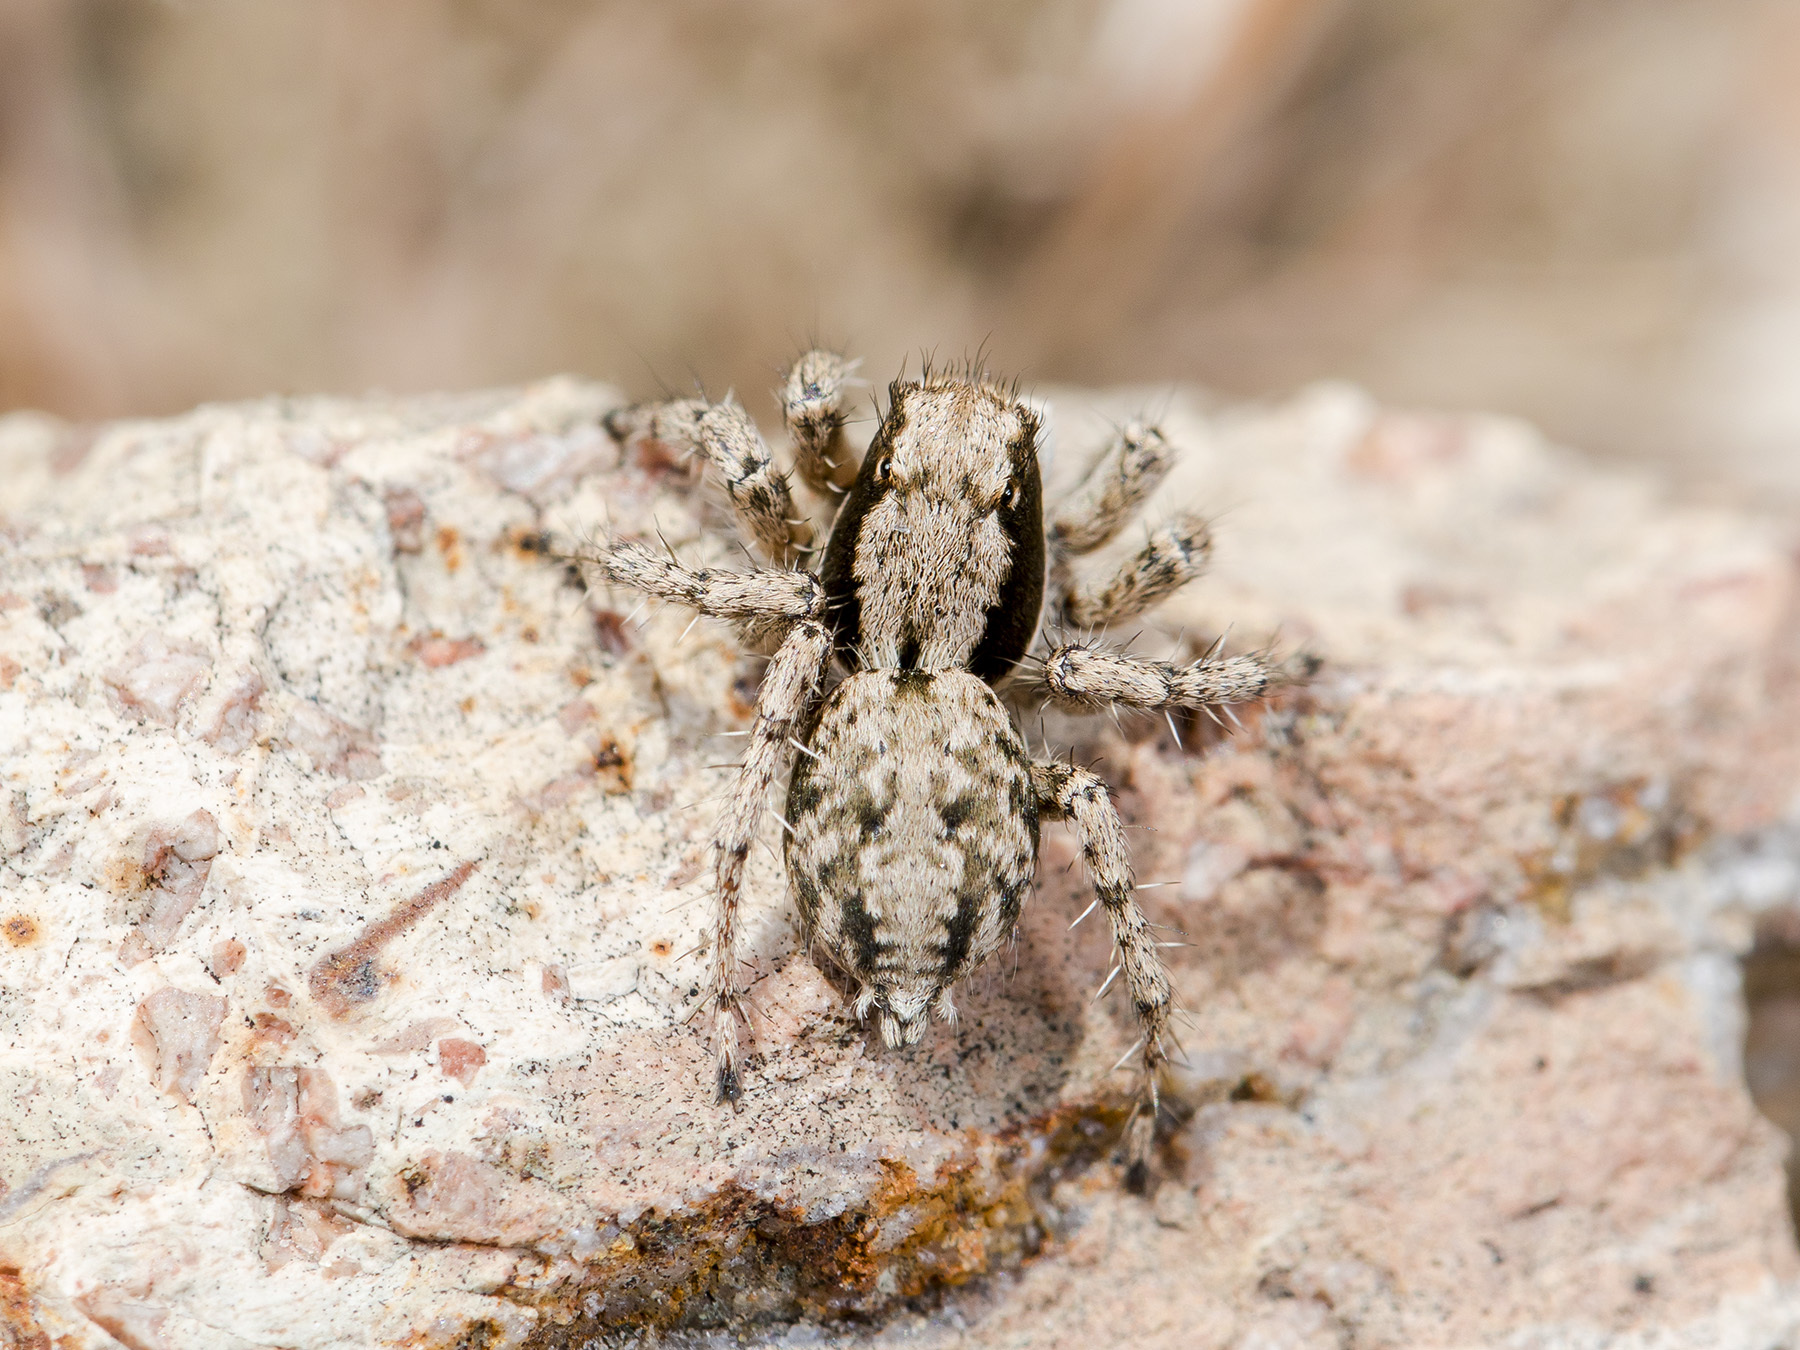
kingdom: Animalia
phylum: Arthropoda
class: Arachnida
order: Araneae
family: Salticidae
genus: Rafalus
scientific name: Rafalus variegatus
